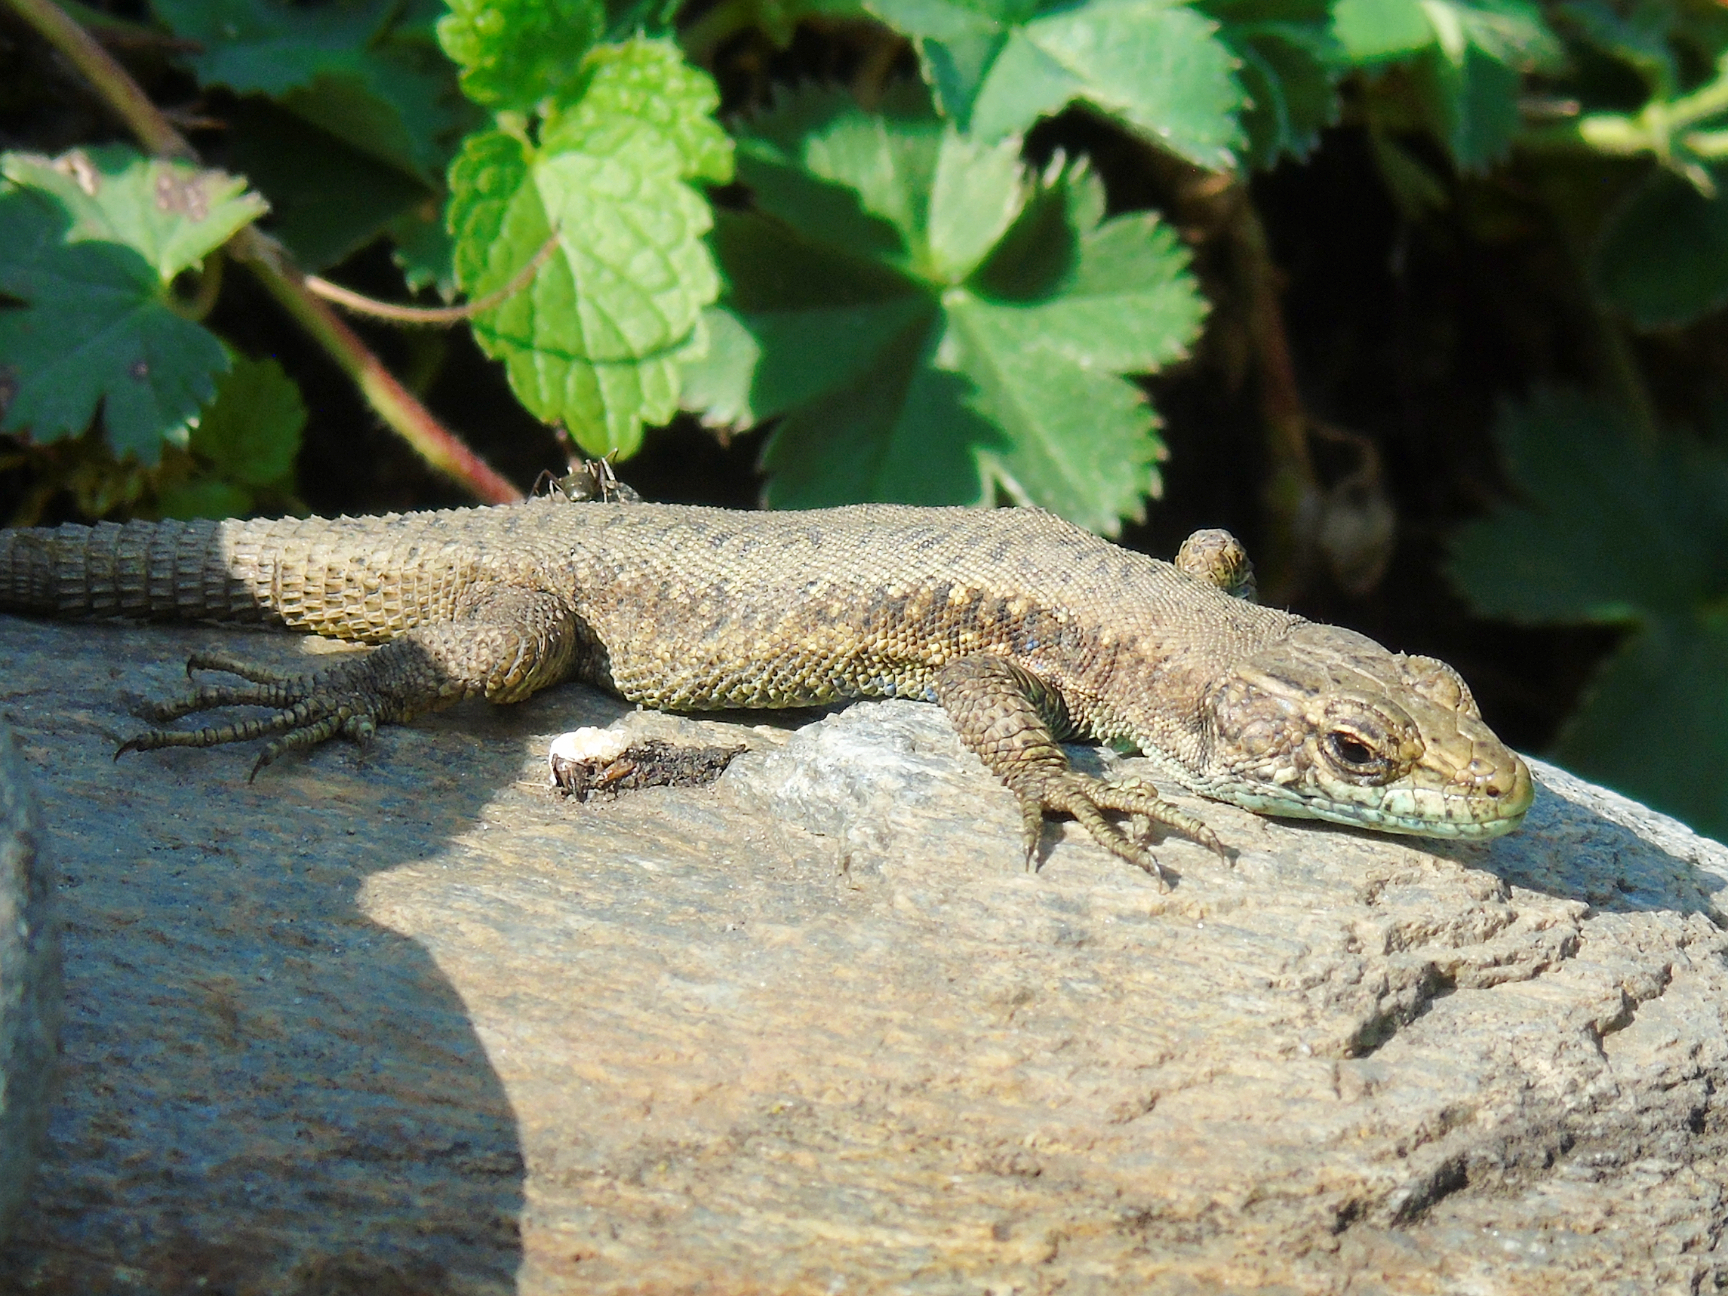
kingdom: Animalia
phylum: Chordata
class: Squamata
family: Lacertidae
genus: Darevskia
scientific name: Darevskia rudis
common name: Spiny-tailed lizard
